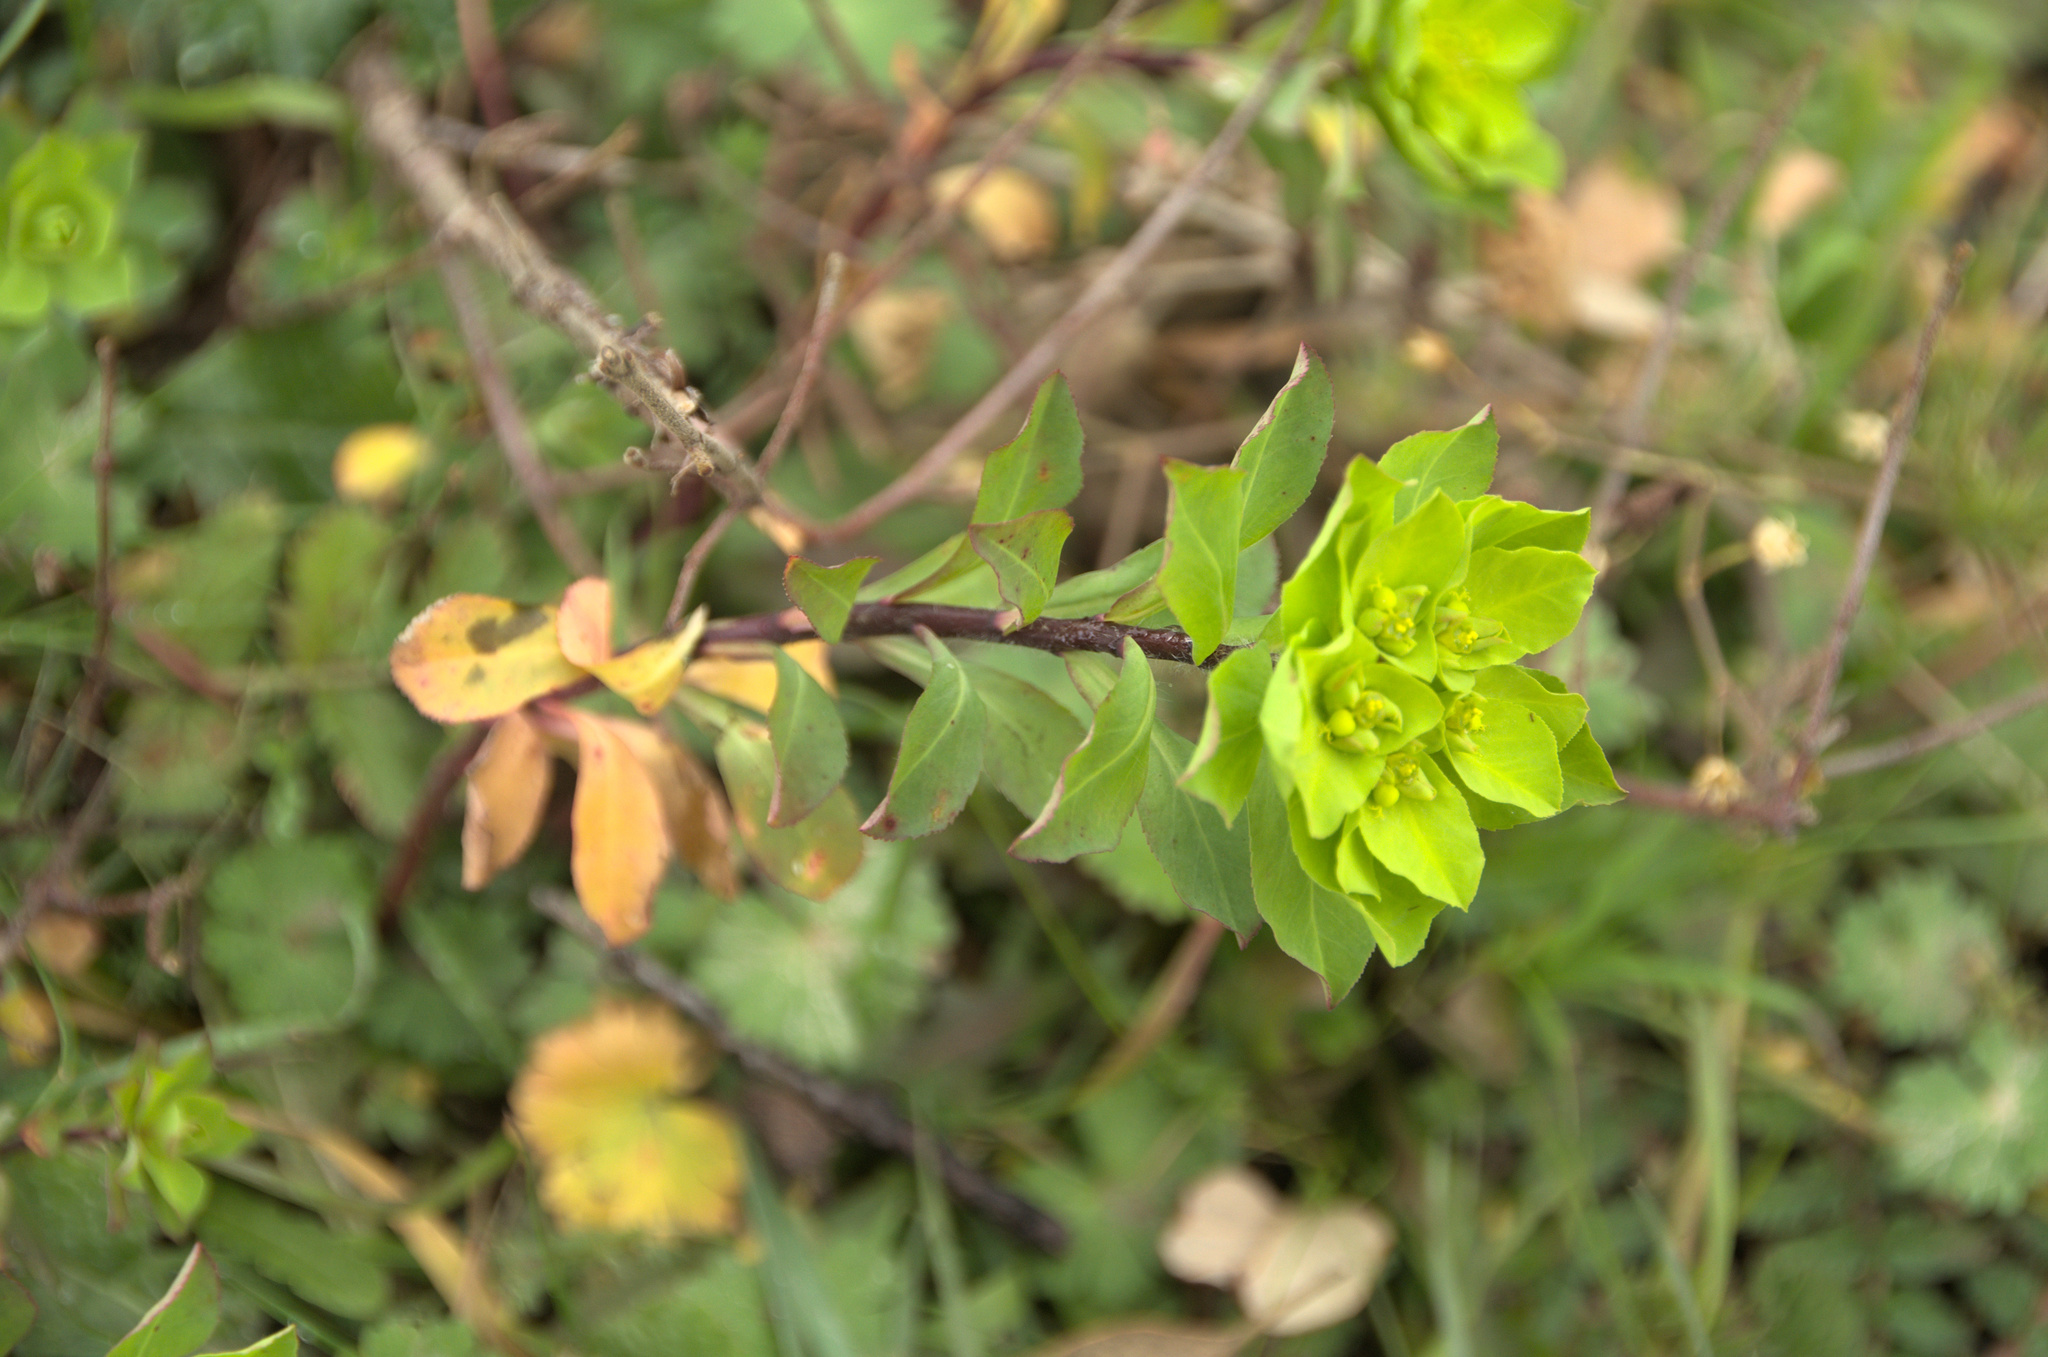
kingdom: Plantae
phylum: Tracheophyta
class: Magnoliopsida
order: Malpighiales
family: Euphorbiaceae
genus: Euphorbia
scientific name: Euphorbia helioscopia
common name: Sun spurge
